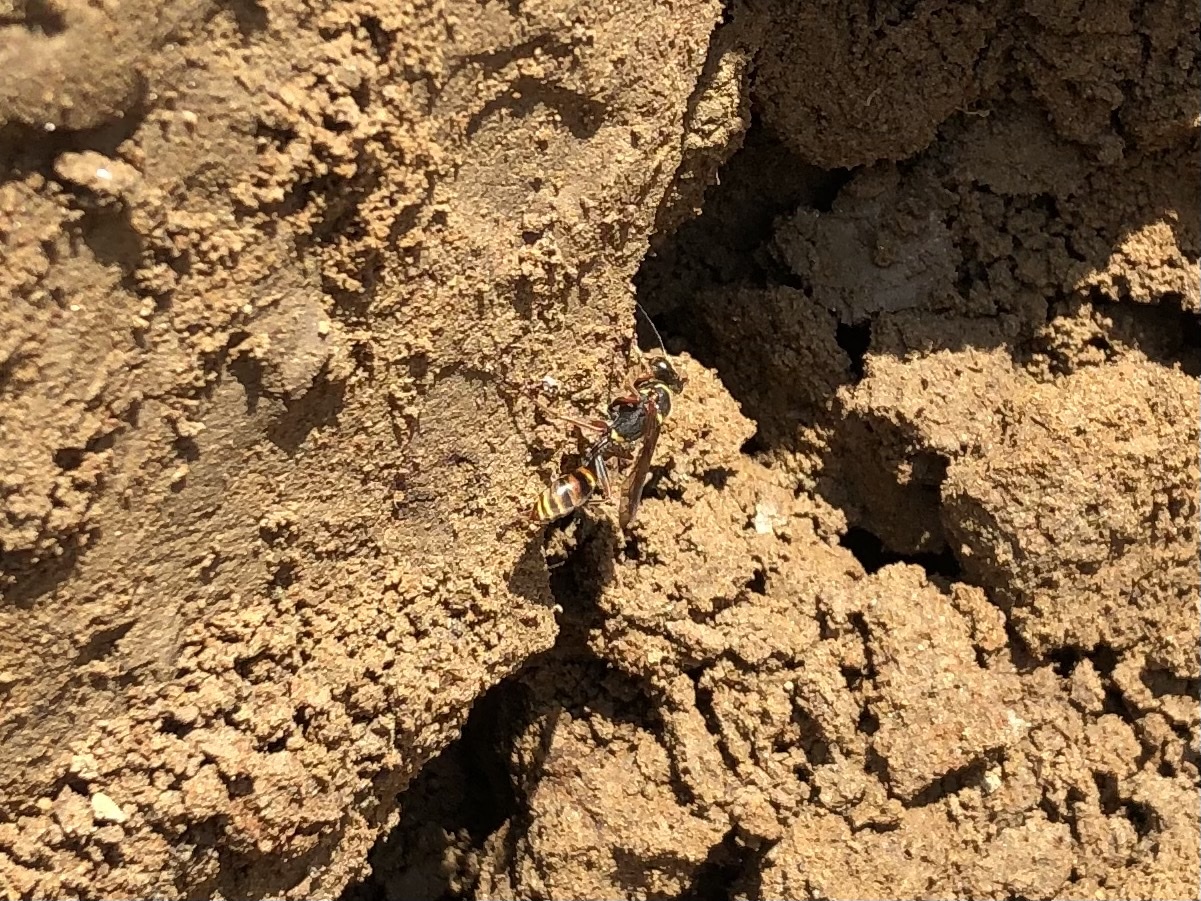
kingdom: Animalia
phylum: Arthropoda
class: Insecta
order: Hymenoptera
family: Sphecidae
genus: Sceliphron
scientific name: Sceliphron curvatum
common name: Pèlopèe
